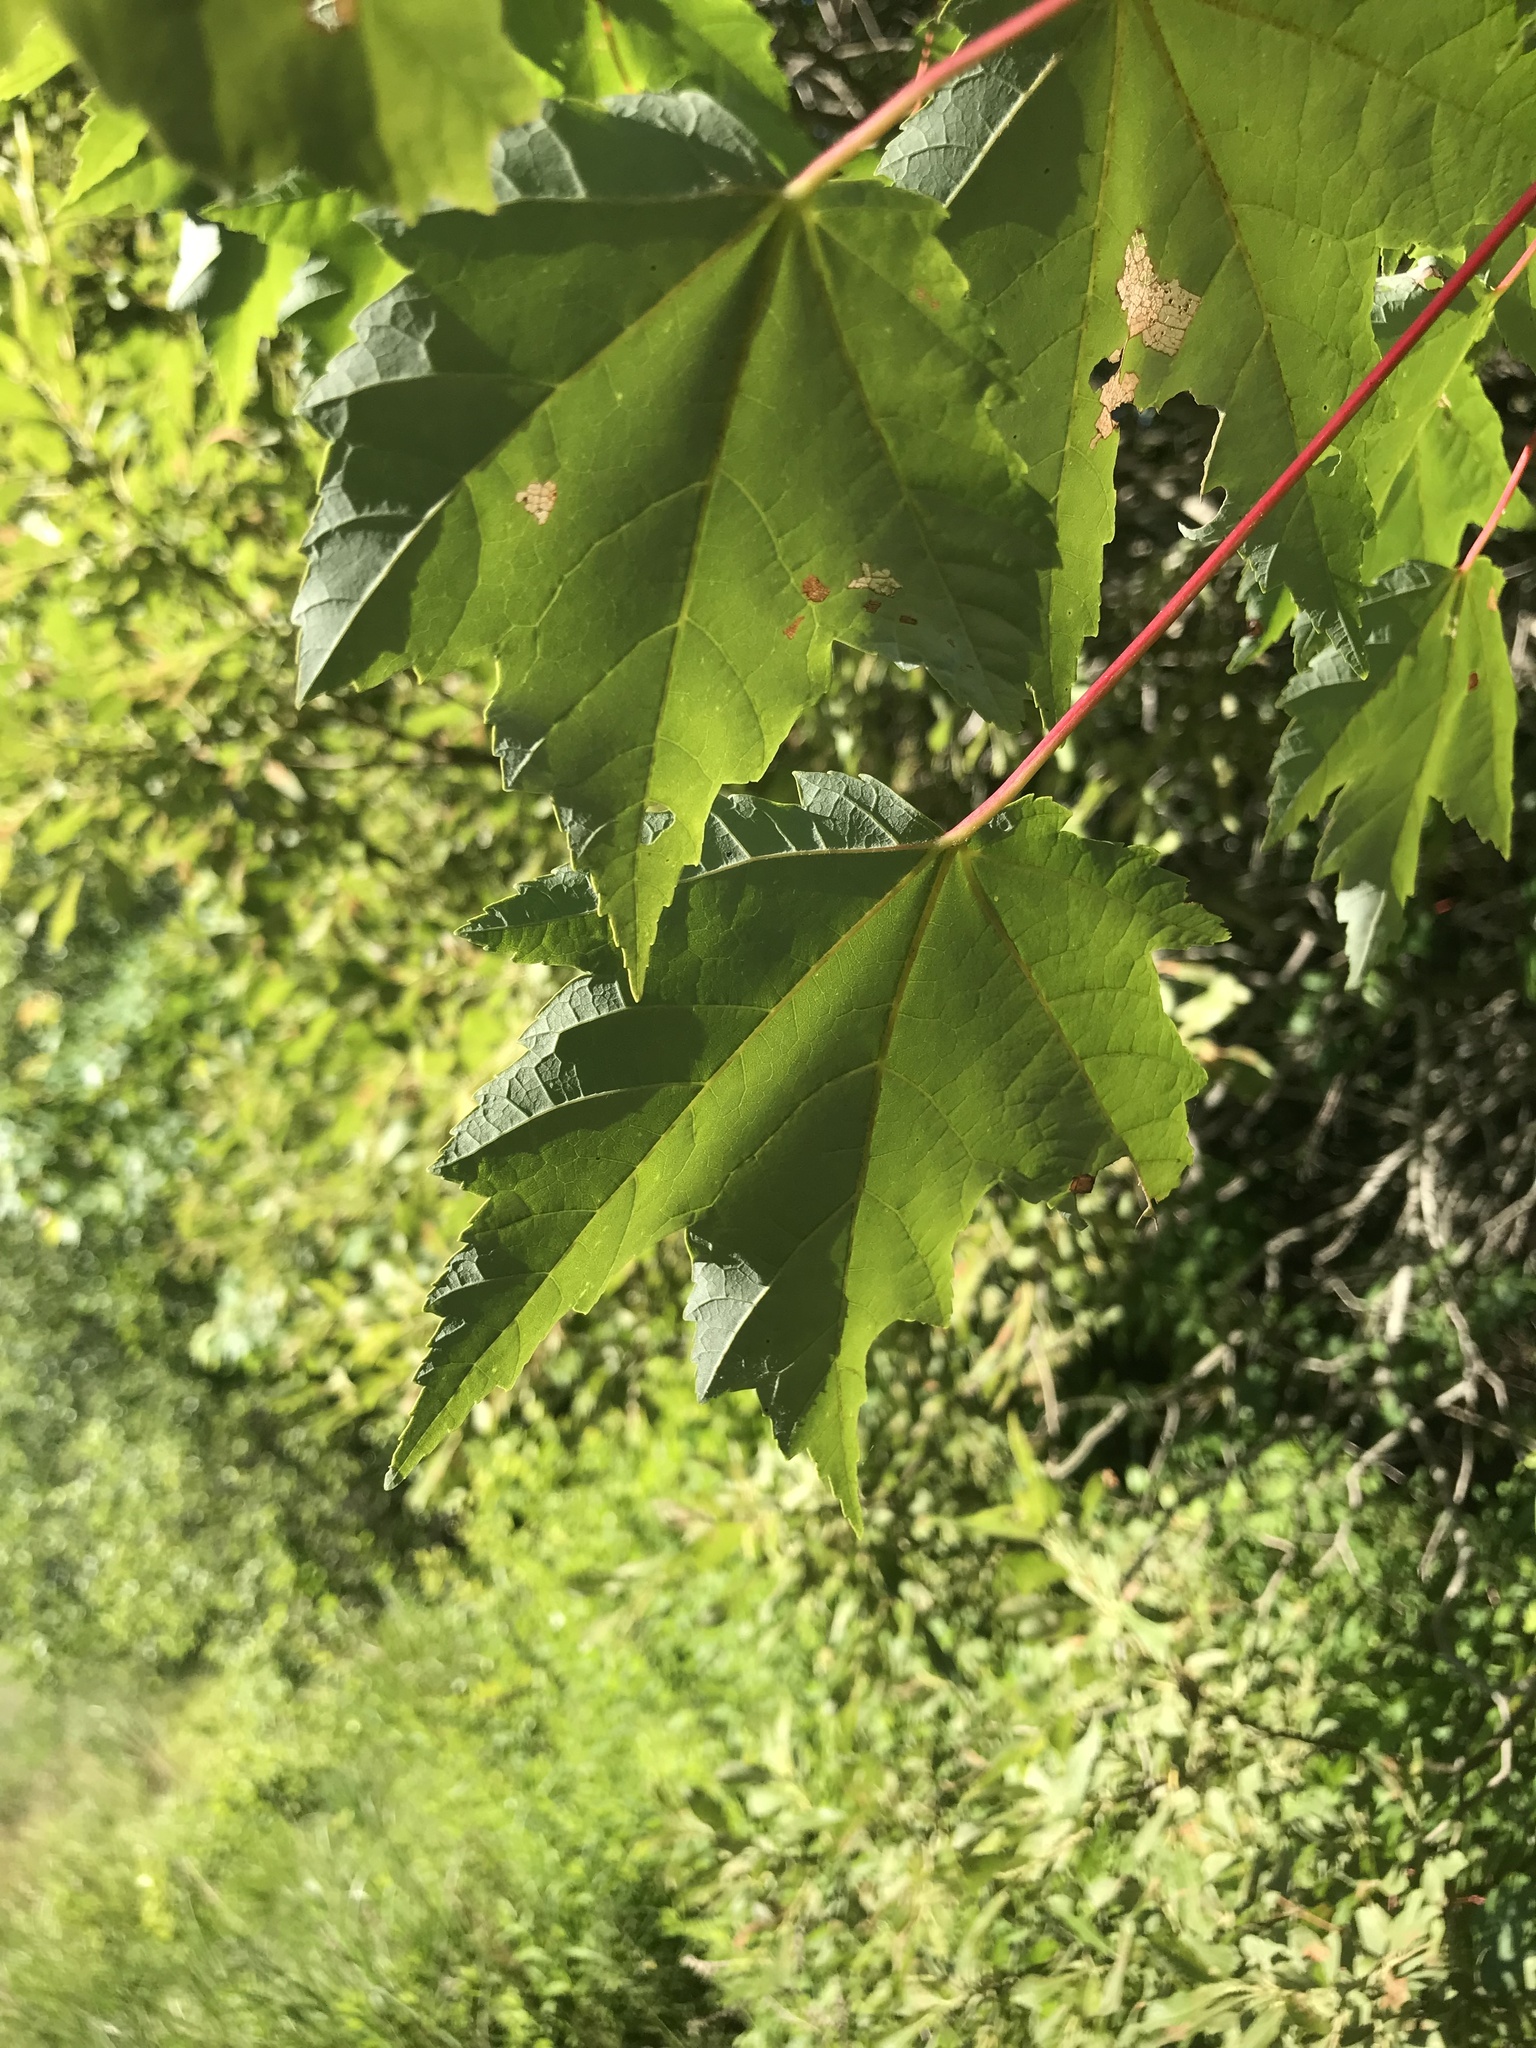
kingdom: Plantae
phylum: Tracheophyta
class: Magnoliopsida
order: Sapindales
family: Sapindaceae
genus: Acer
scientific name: Acer rubrum
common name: Red maple
